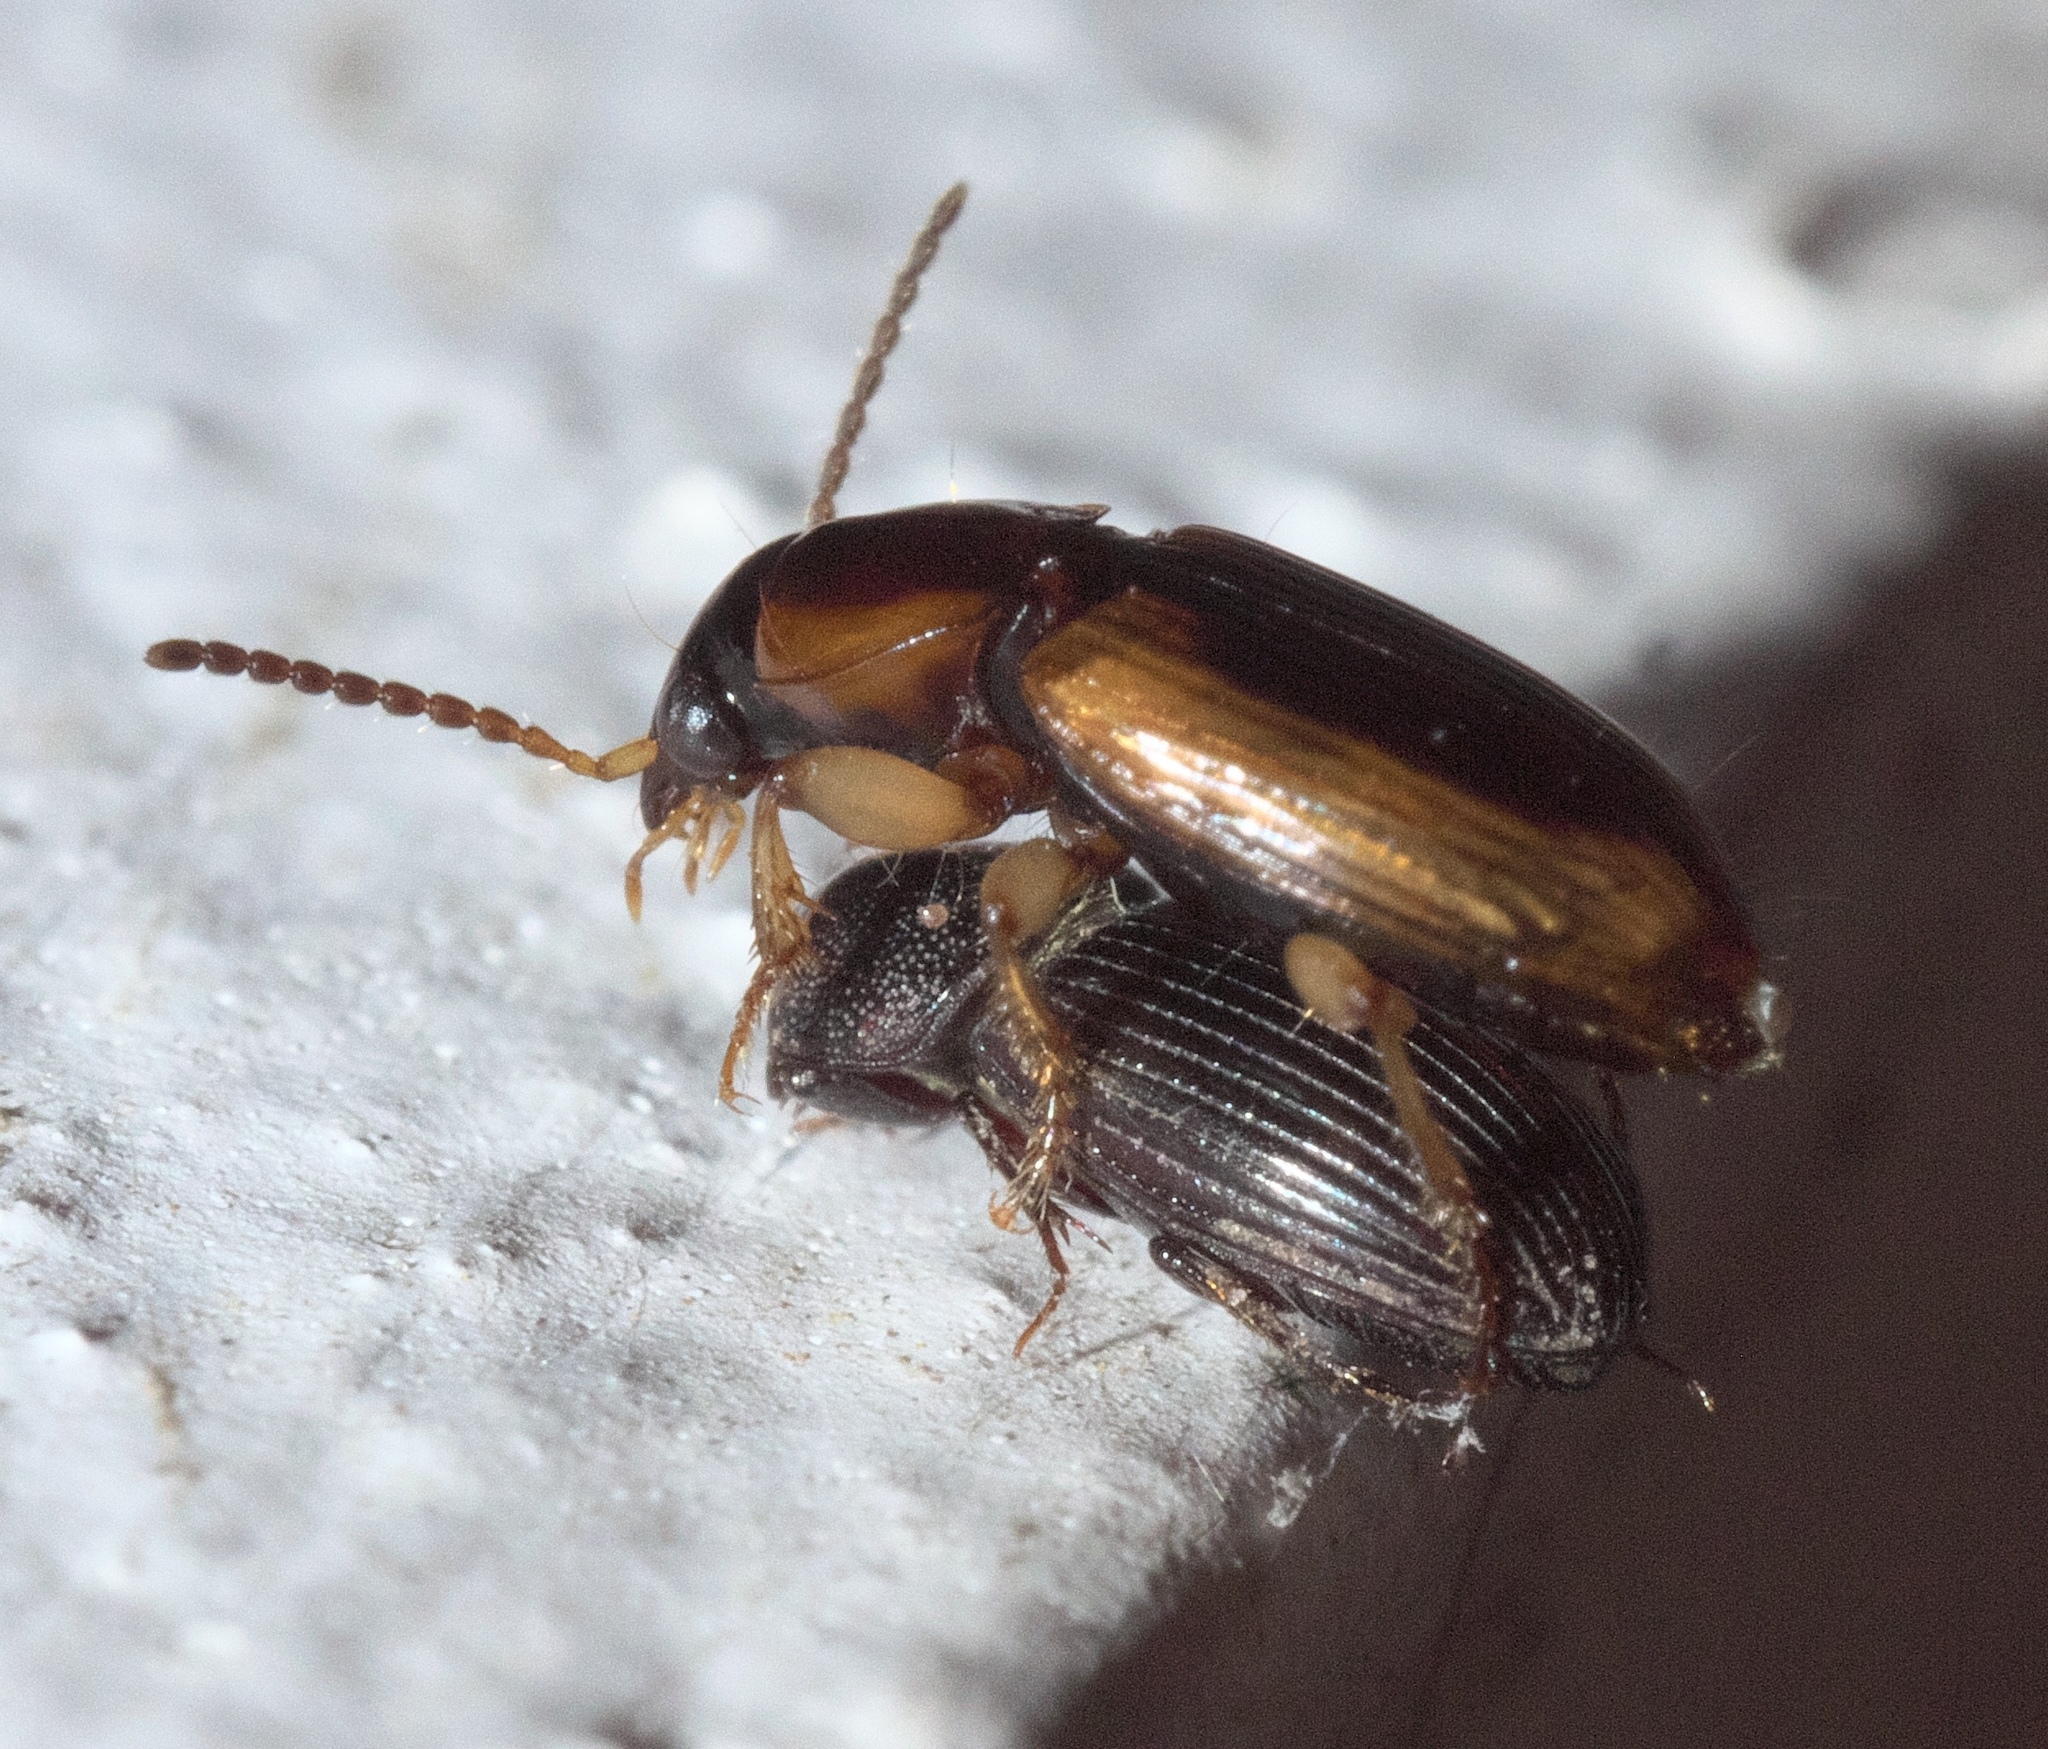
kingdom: Animalia
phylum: Arthropoda
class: Insecta
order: Coleoptera
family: Carabidae
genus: Stenolophus
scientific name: Stenolophus lecontei
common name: Leconte's seedcorn beetle
